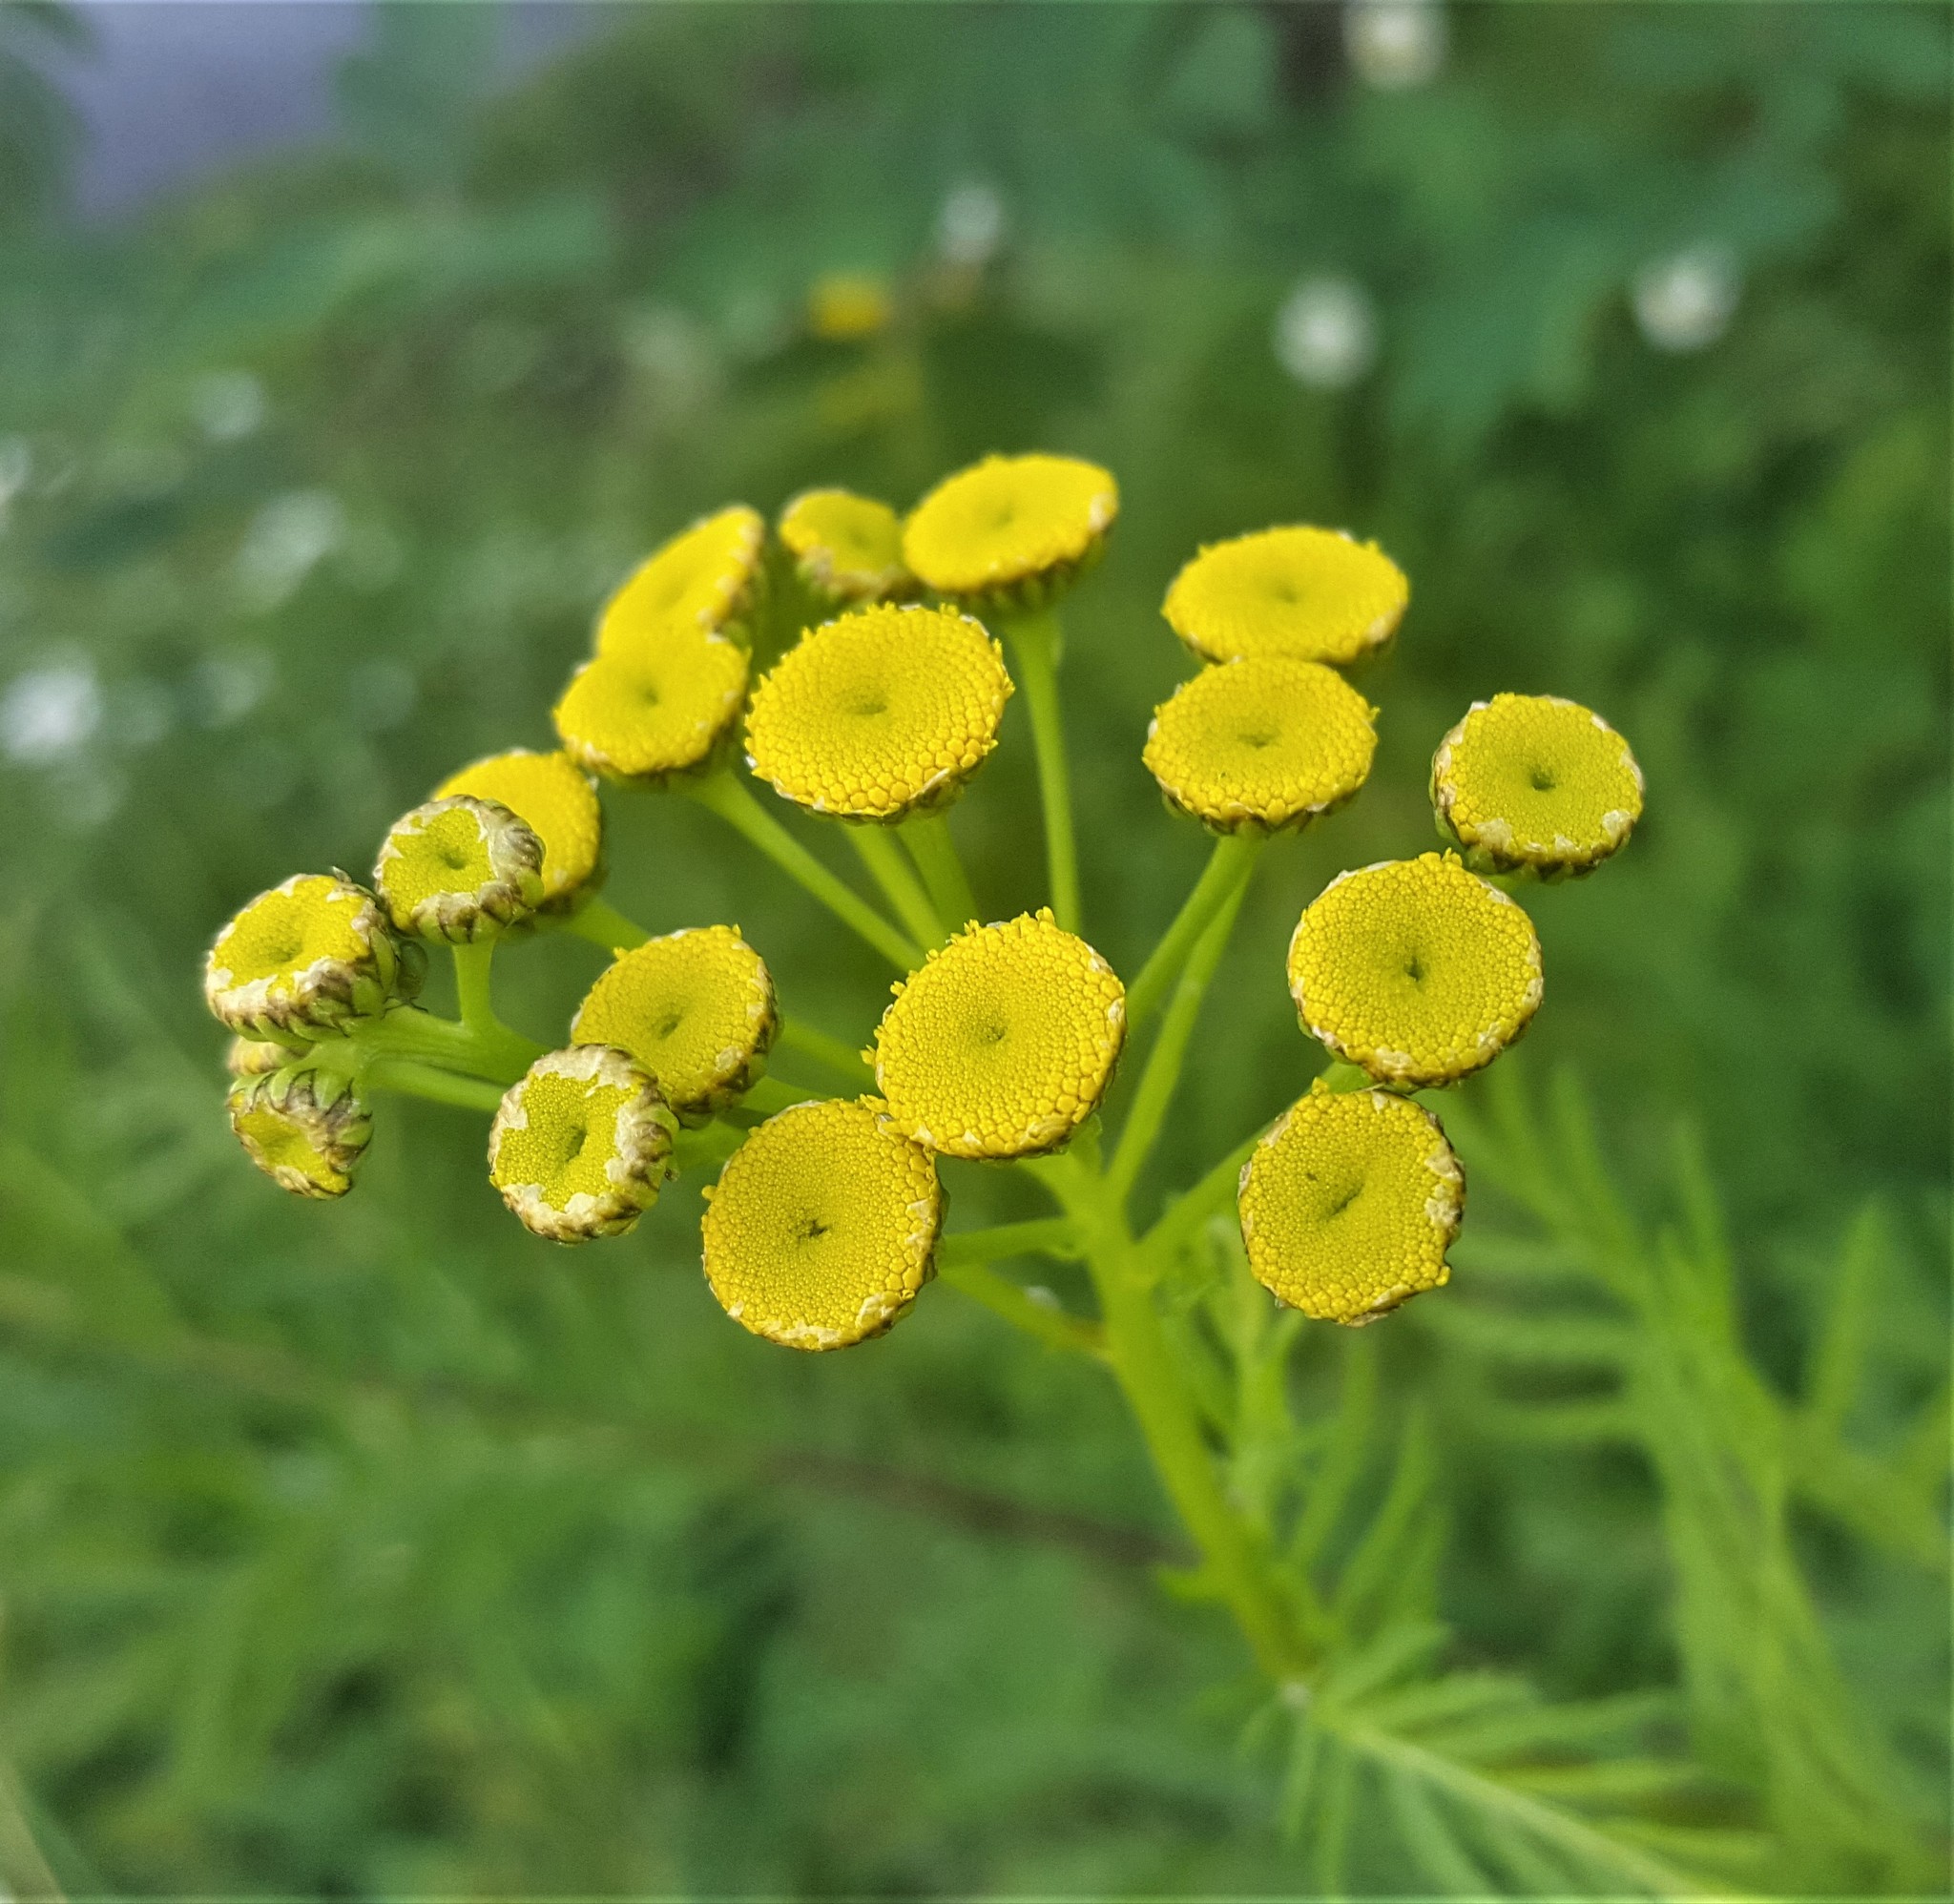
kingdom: Plantae
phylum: Tracheophyta
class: Magnoliopsida
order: Asterales
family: Asteraceae
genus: Tanacetum
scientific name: Tanacetum vulgare
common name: Common tansy
